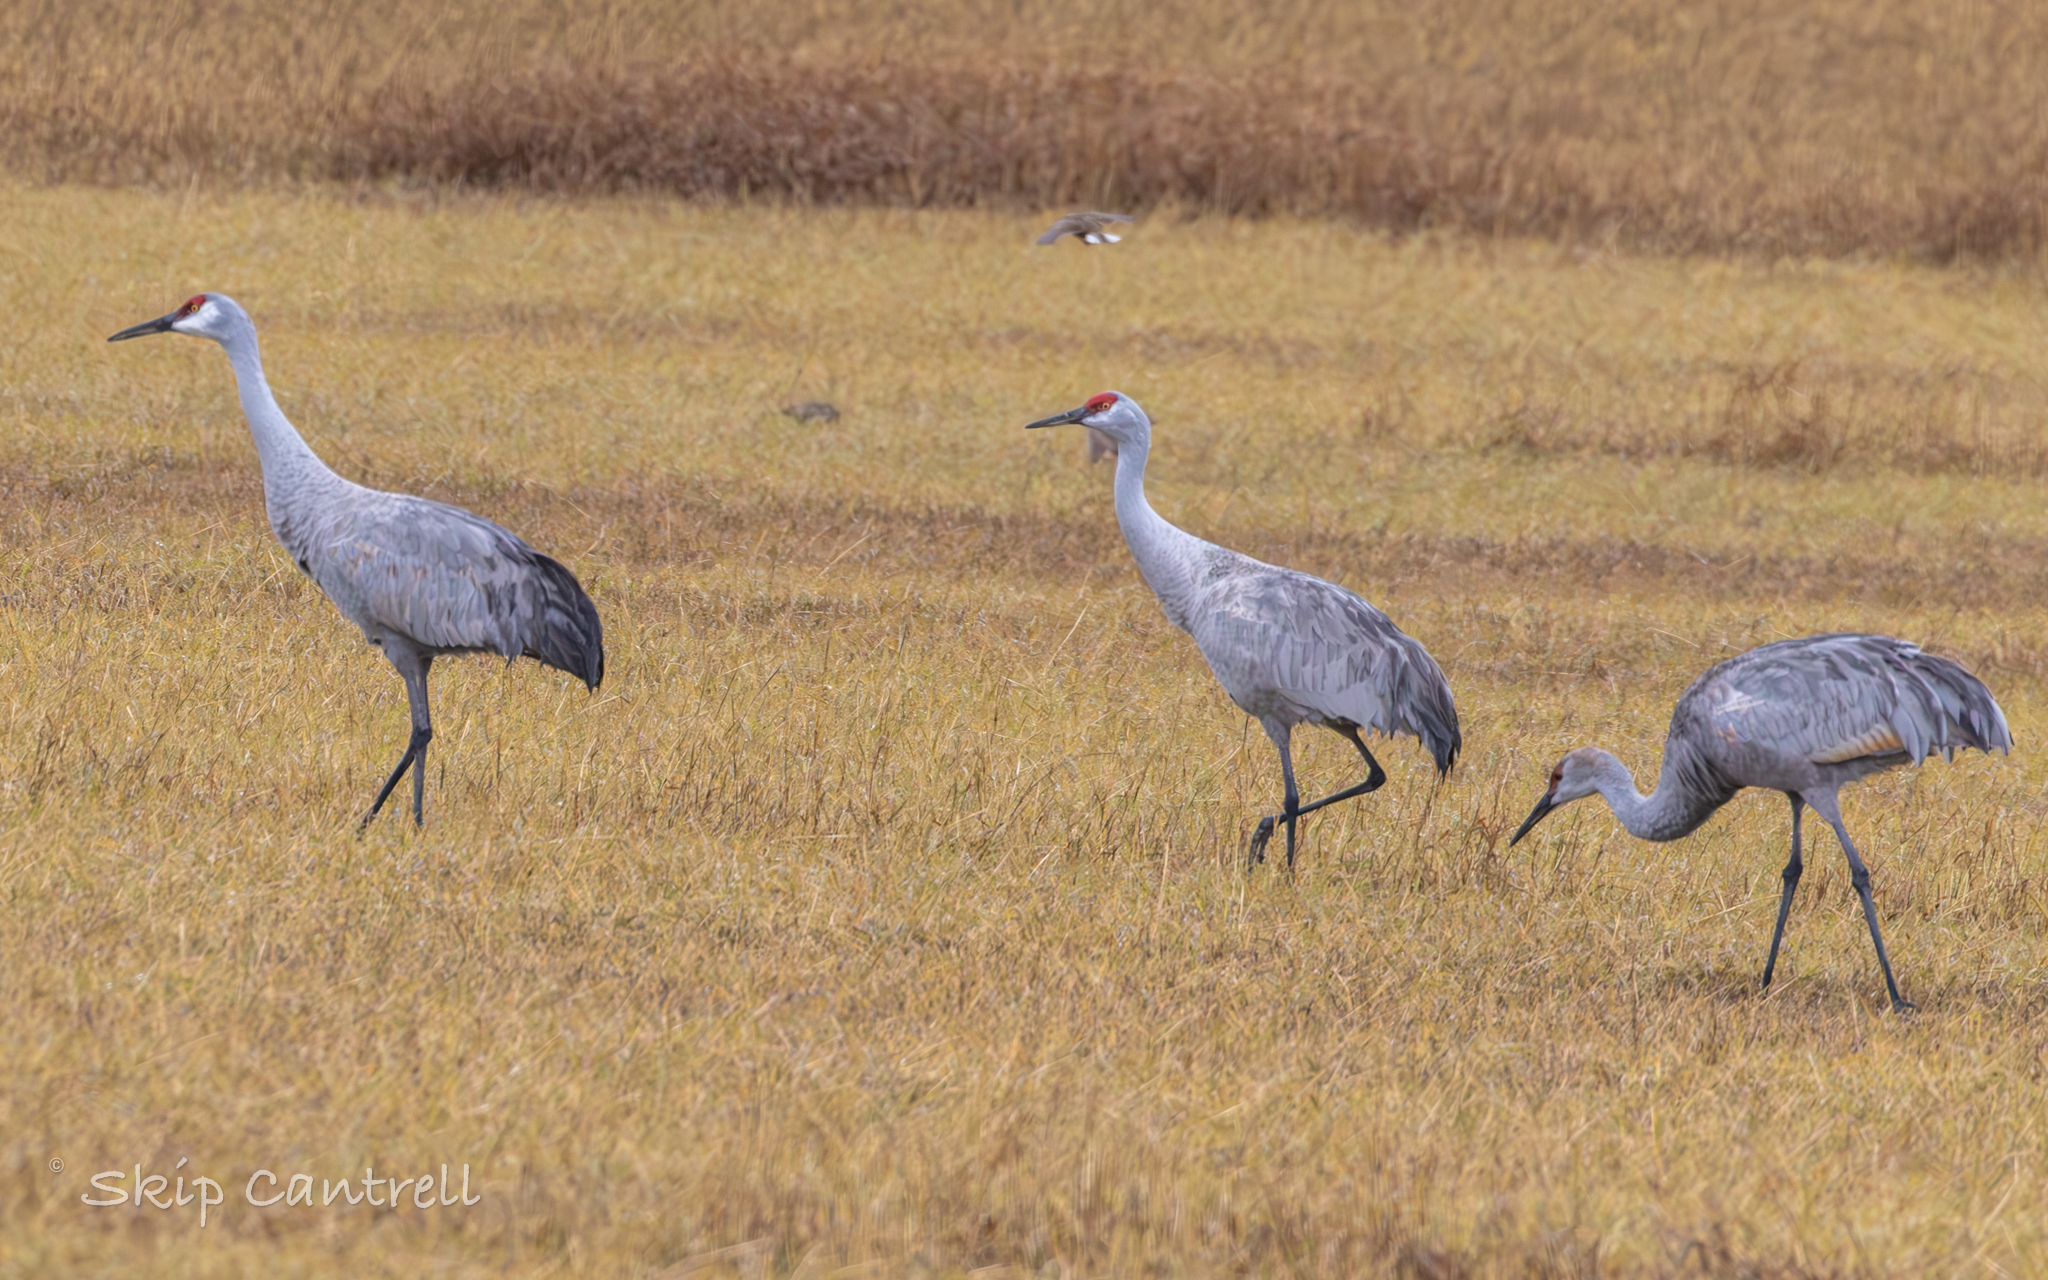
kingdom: Animalia
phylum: Chordata
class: Aves
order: Gruiformes
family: Gruidae
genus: Grus
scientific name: Grus canadensis
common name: Sandhill crane
